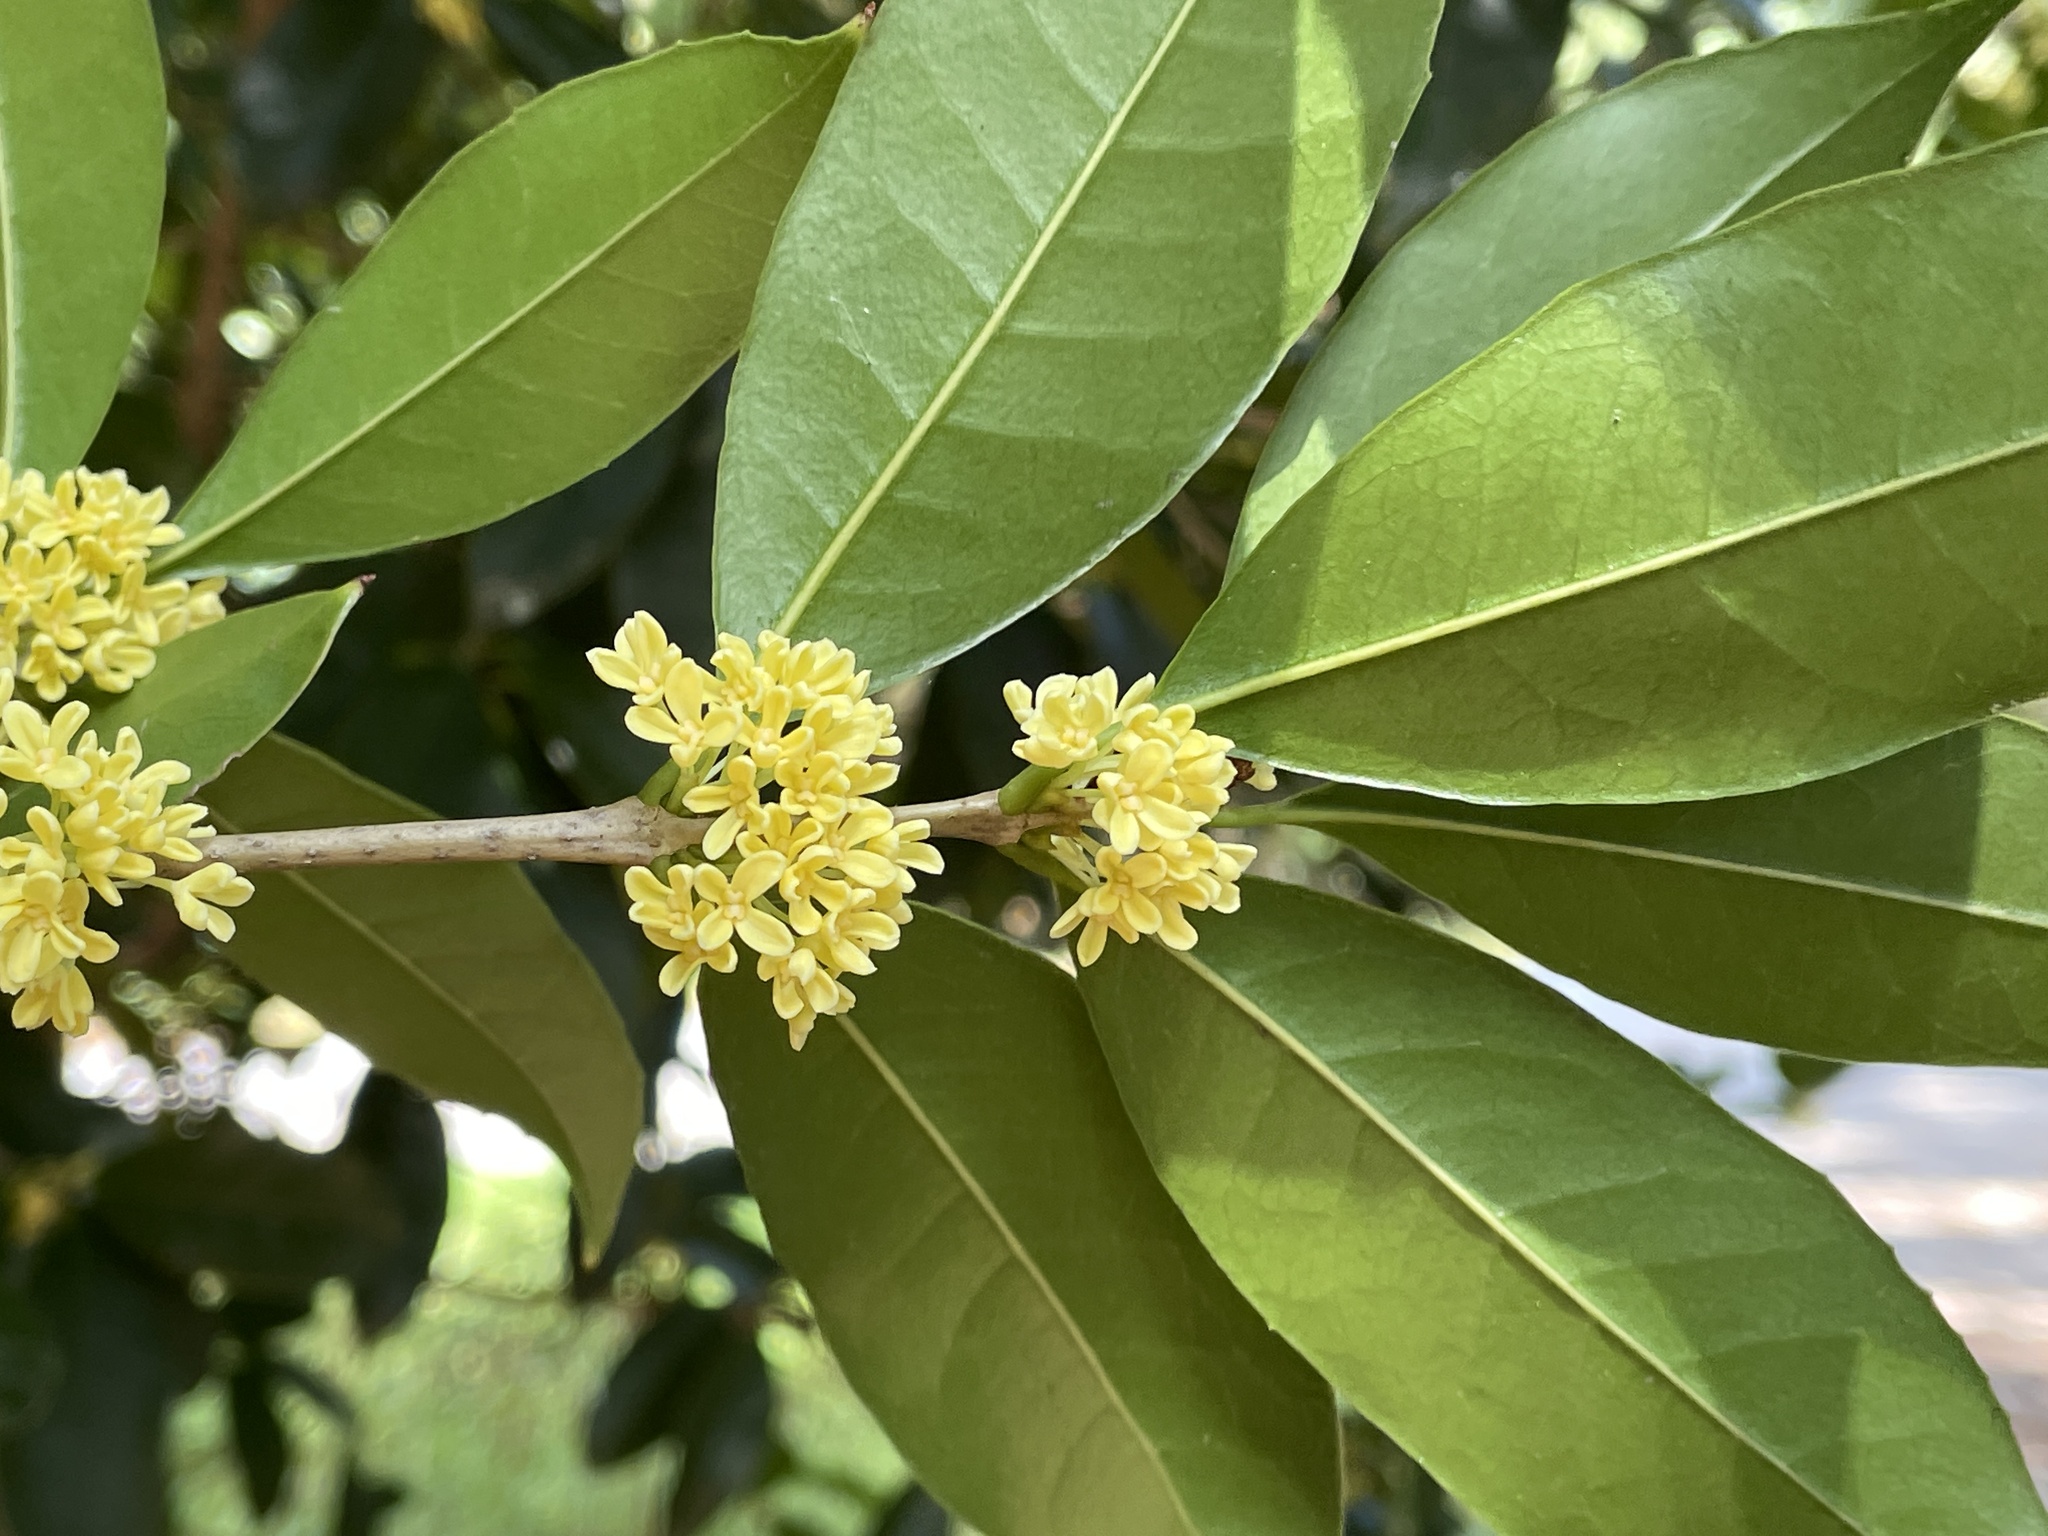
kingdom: Plantae
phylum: Tracheophyta
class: Magnoliopsida
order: Lamiales
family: Oleaceae
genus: Osmanthus
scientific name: Osmanthus fragrans
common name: Sweet osmanthus
